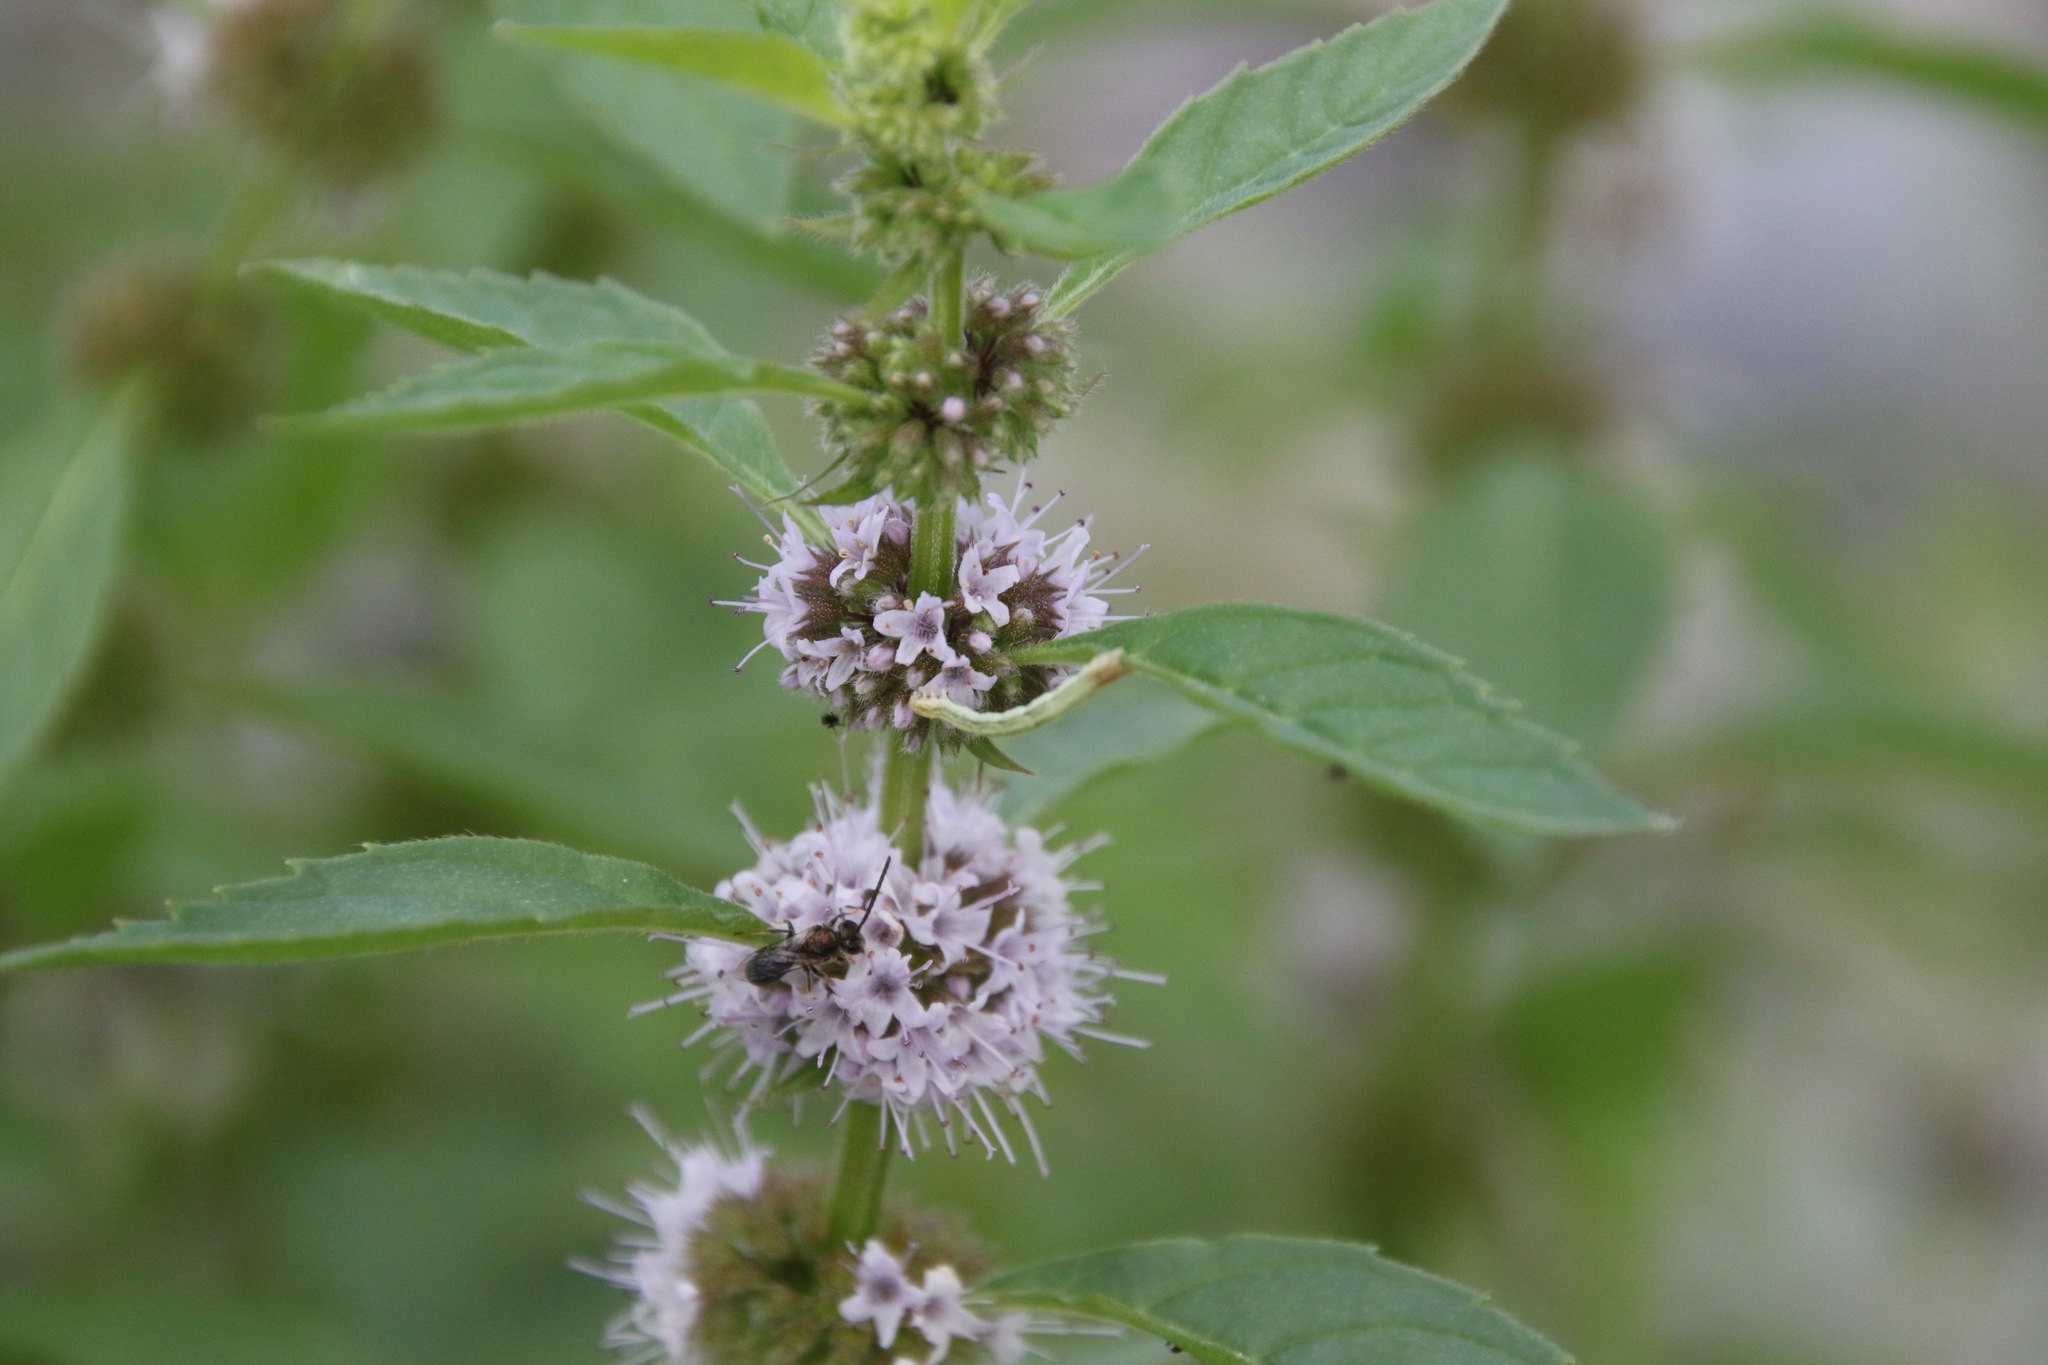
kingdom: Plantae
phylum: Tracheophyta
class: Magnoliopsida
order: Lamiales
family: Lamiaceae
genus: Mentha
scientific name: Mentha canadensis
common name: American corn mint
